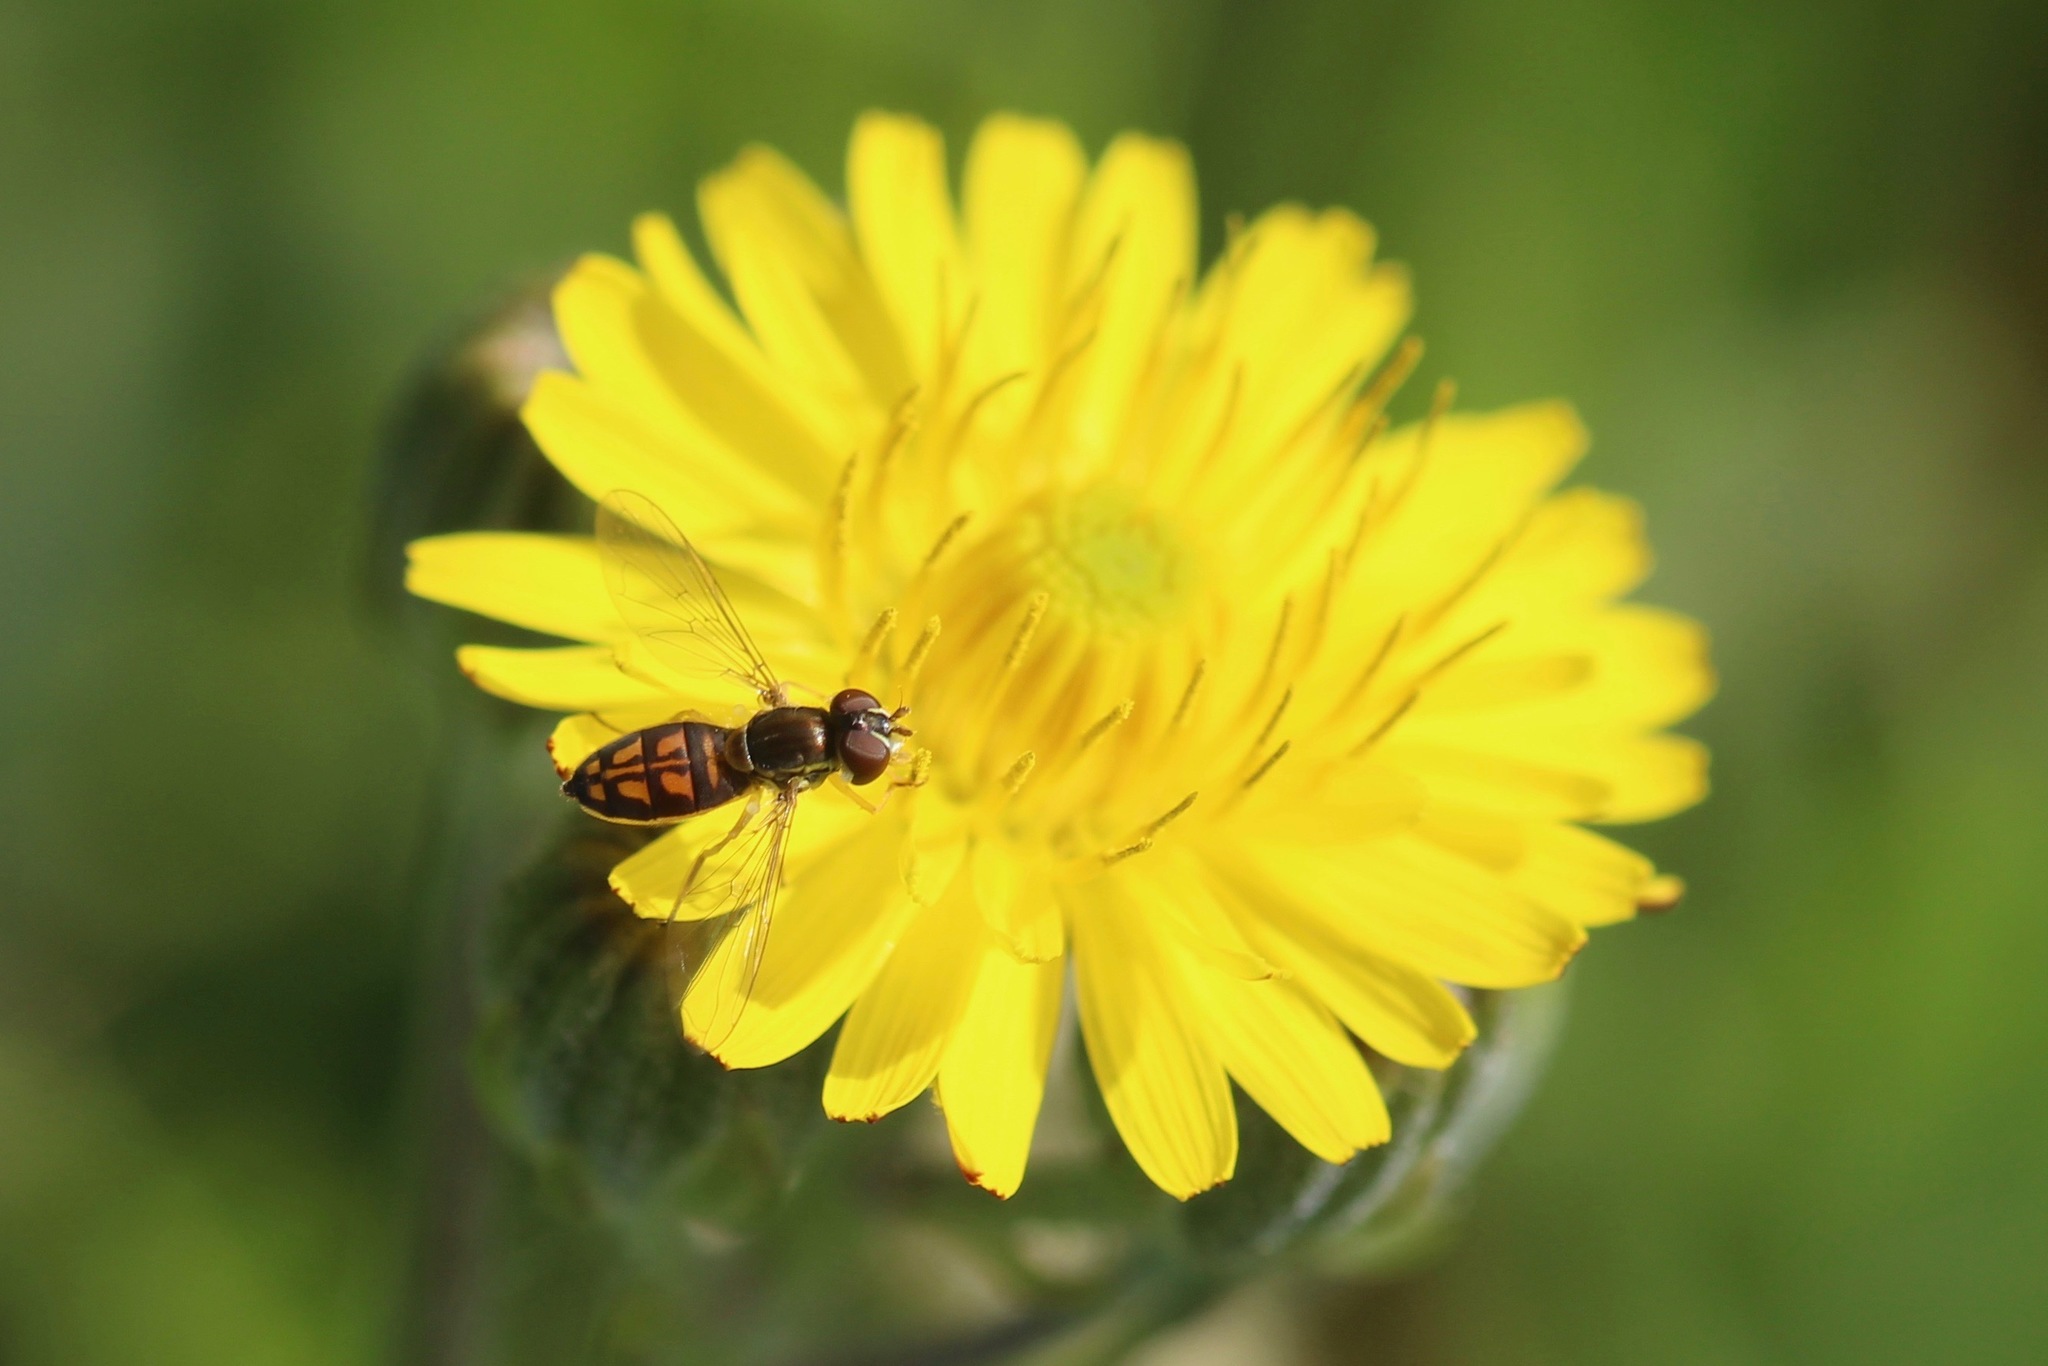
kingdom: Animalia
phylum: Arthropoda
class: Insecta
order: Diptera
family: Syrphidae
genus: Toxomerus
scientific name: Toxomerus marginatus
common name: Syrphid fly
